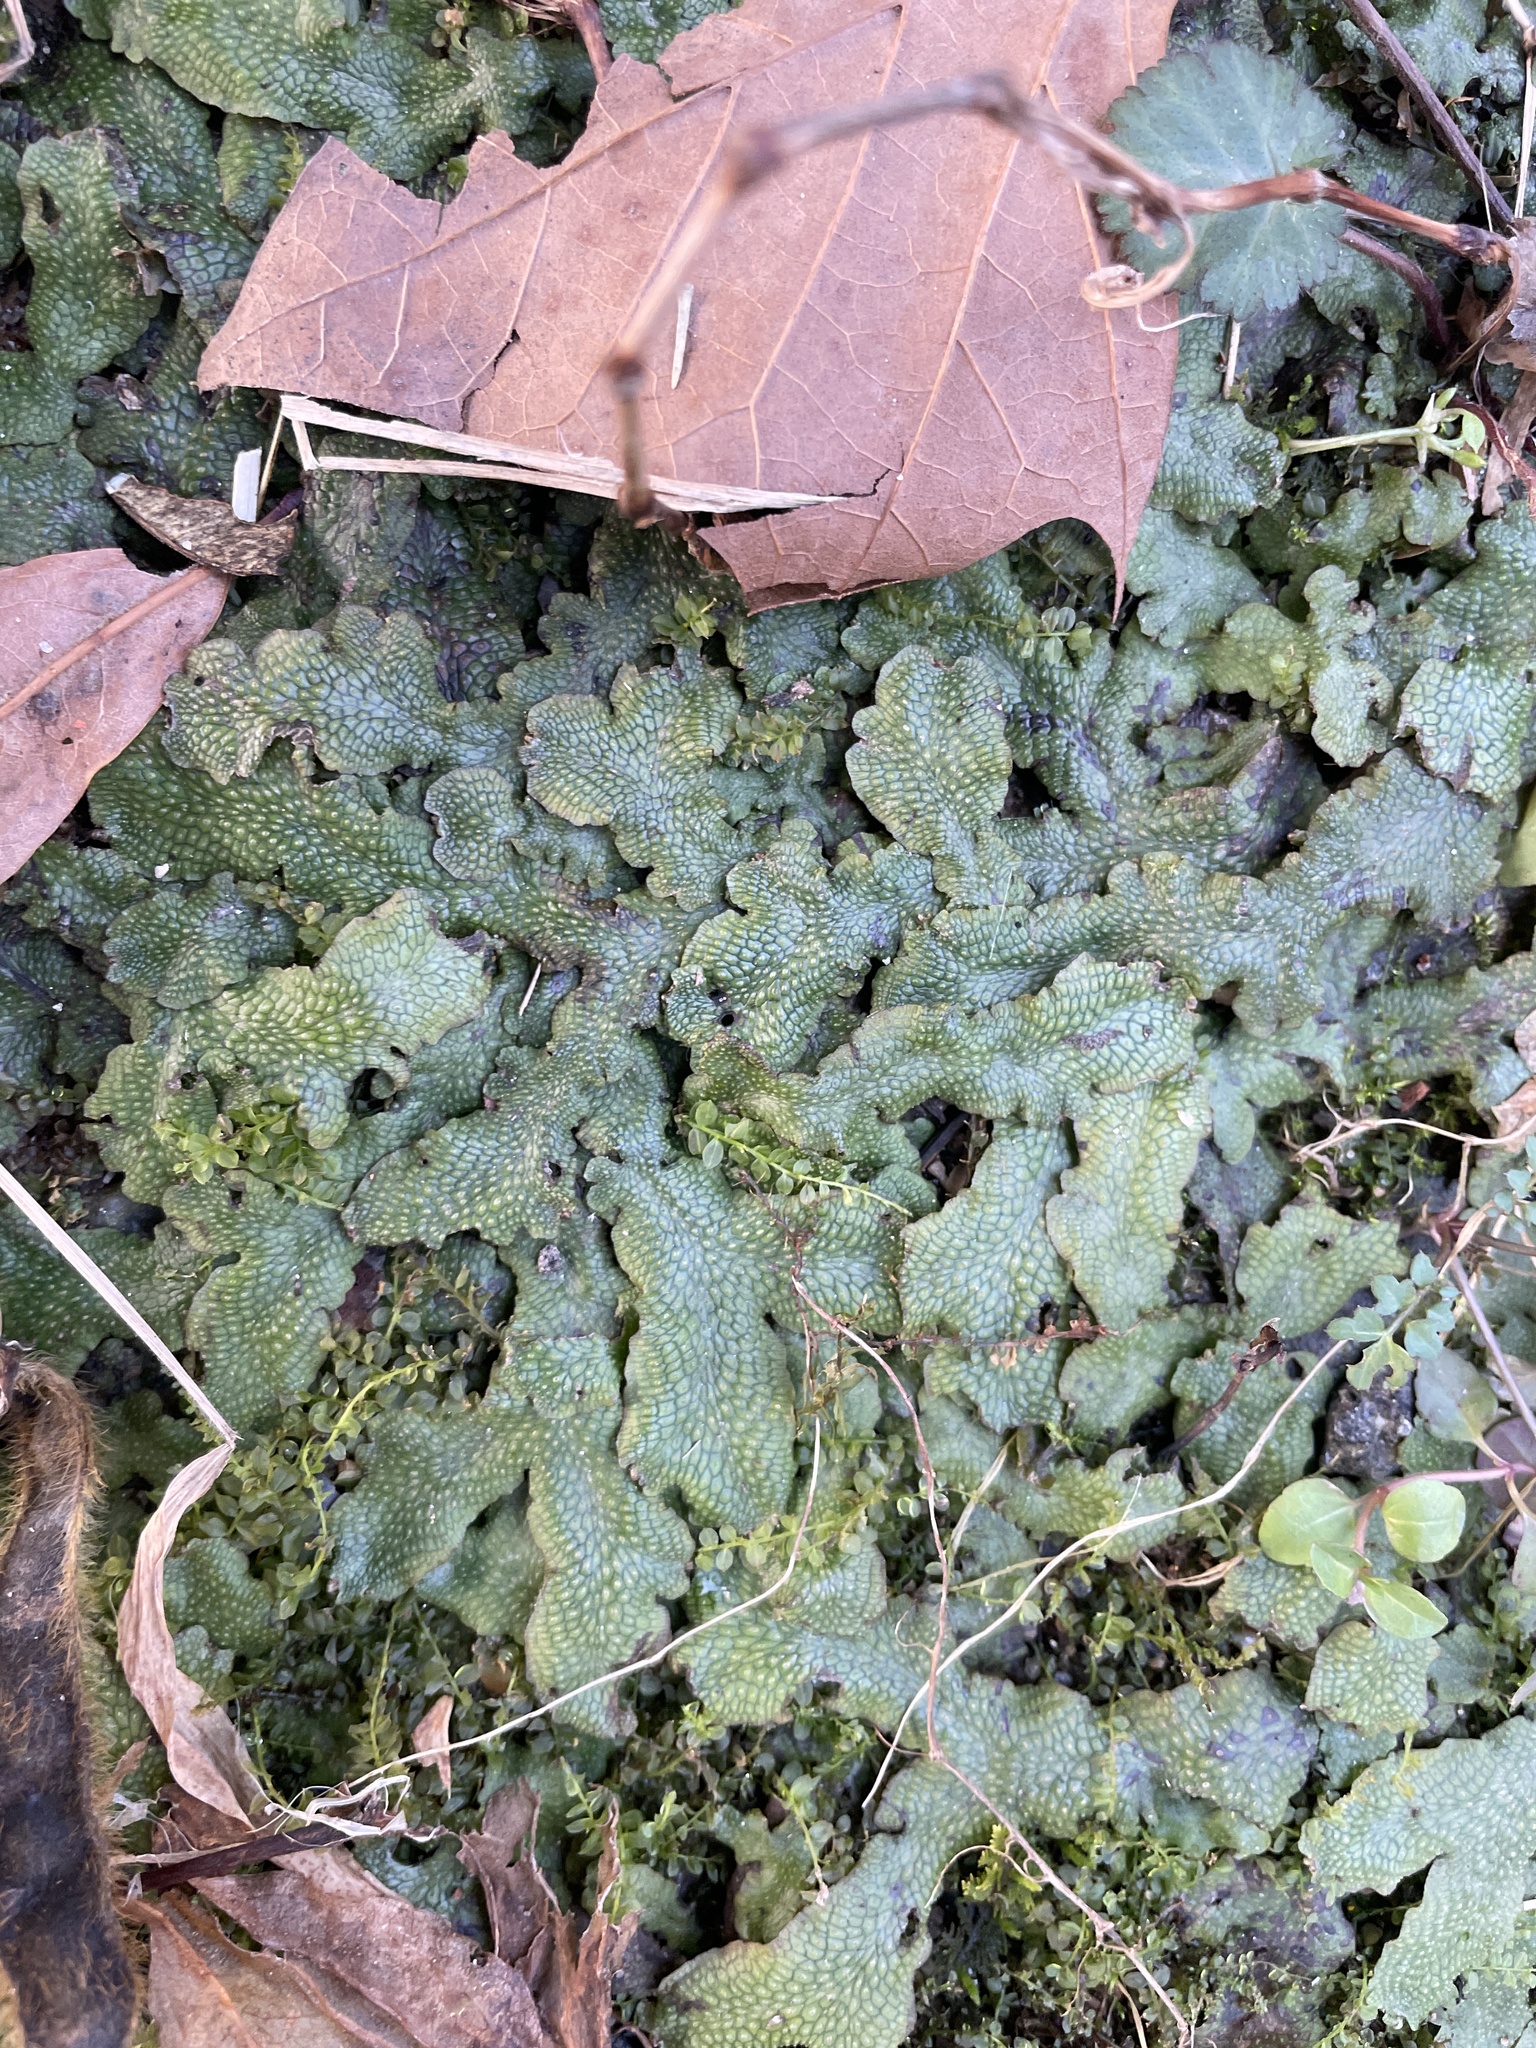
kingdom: Plantae
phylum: Marchantiophyta
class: Marchantiopsida
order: Marchantiales
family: Conocephalaceae
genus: Conocephalum
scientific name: Conocephalum salebrosum
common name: Cat-tongue liverwort
